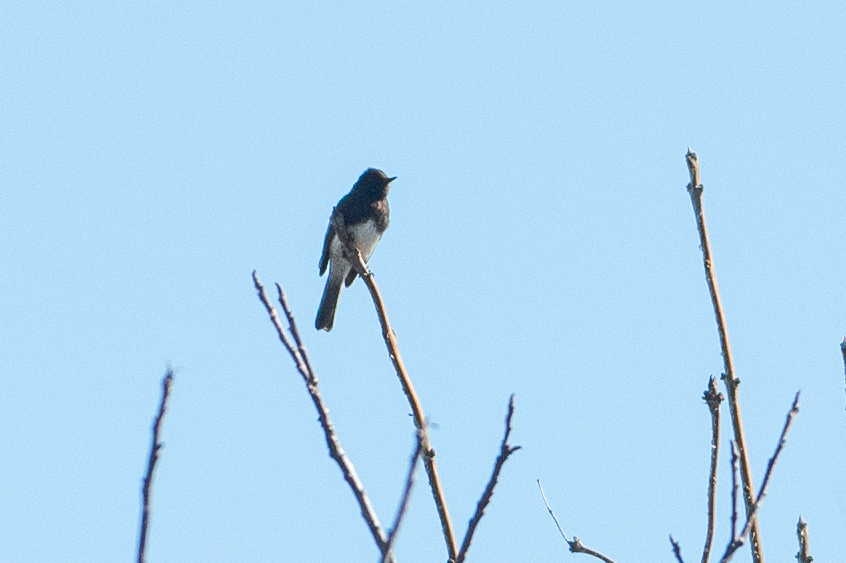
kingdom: Animalia
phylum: Chordata
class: Aves
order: Passeriformes
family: Tyrannidae
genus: Sayornis
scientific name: Sayornis nigricans
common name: Black phoebe
